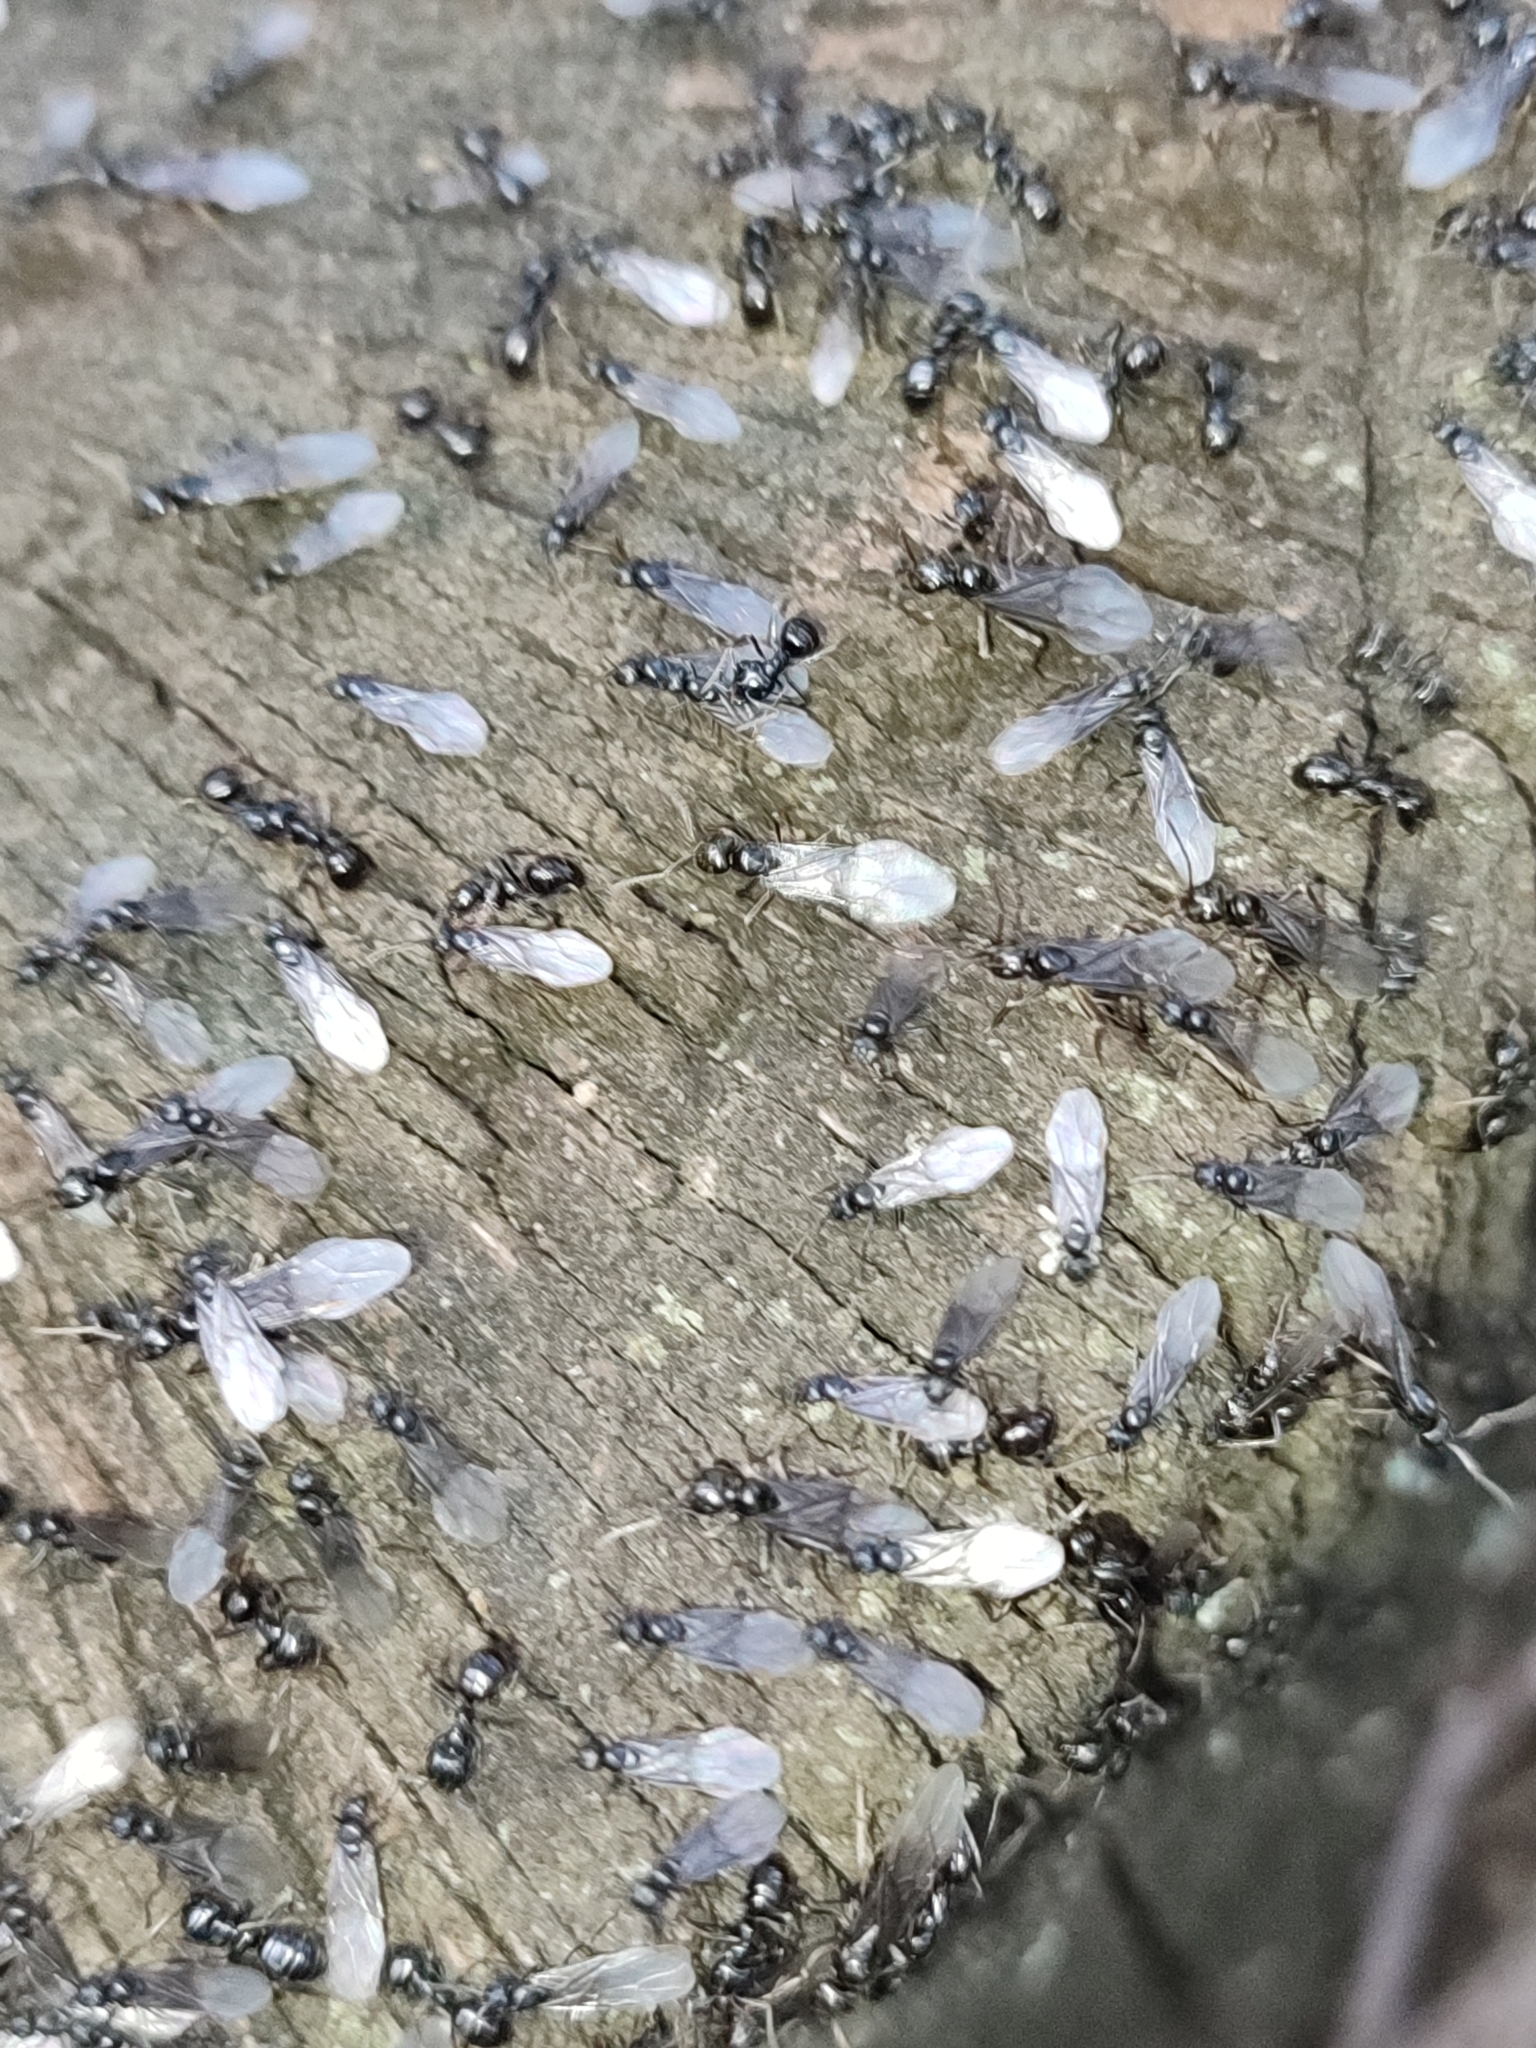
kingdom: Animalia
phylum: Arthropoda
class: Insecta
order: Hymenoptera
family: Formicidae
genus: Lasius
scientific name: Lasius fuliginosus
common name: Jet ant
